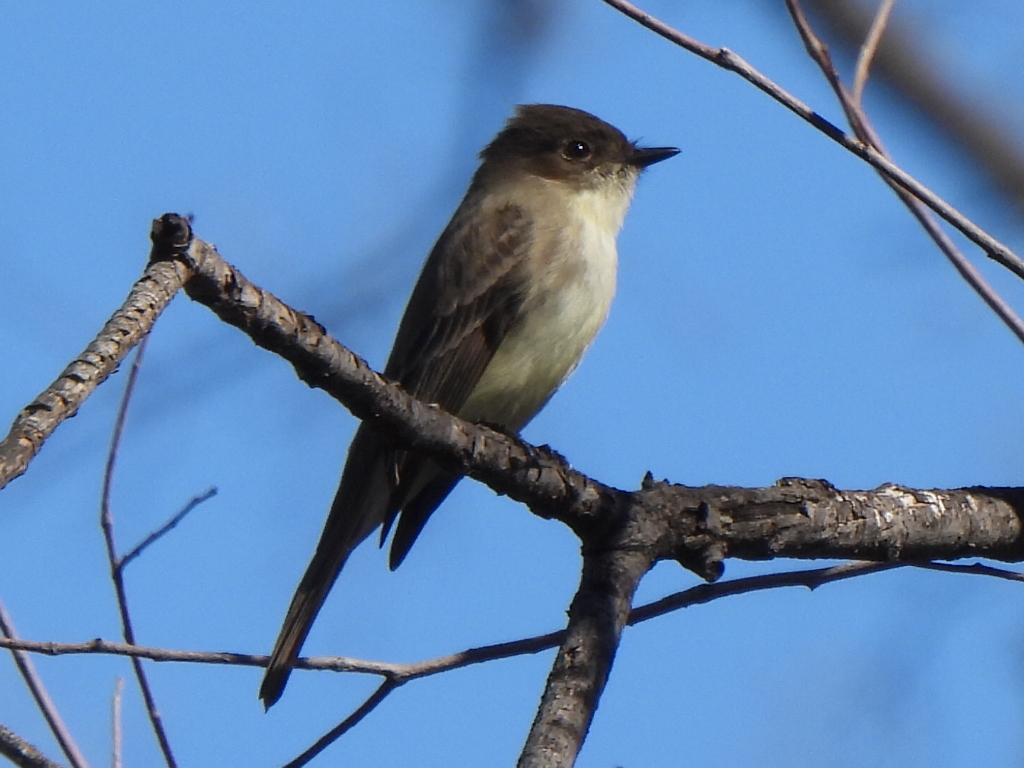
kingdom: Animalia
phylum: Chordata
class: Aves
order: Passeriformes
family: Tyrannidae
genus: Sayornis
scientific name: Sayornis phoebe
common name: Eastern phoebe
